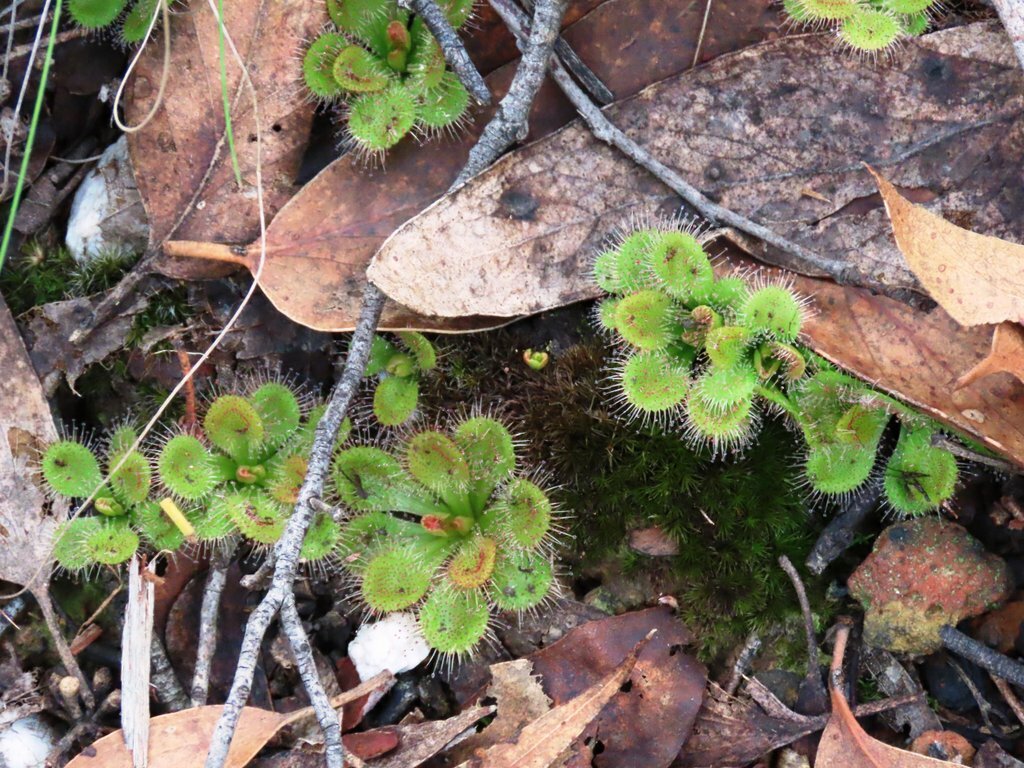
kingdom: Plantae
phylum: Tracheophyta
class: Magnoliopsida
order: Caryophyllales
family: Droseraceae
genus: Drosera
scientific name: Drosera aberrans
